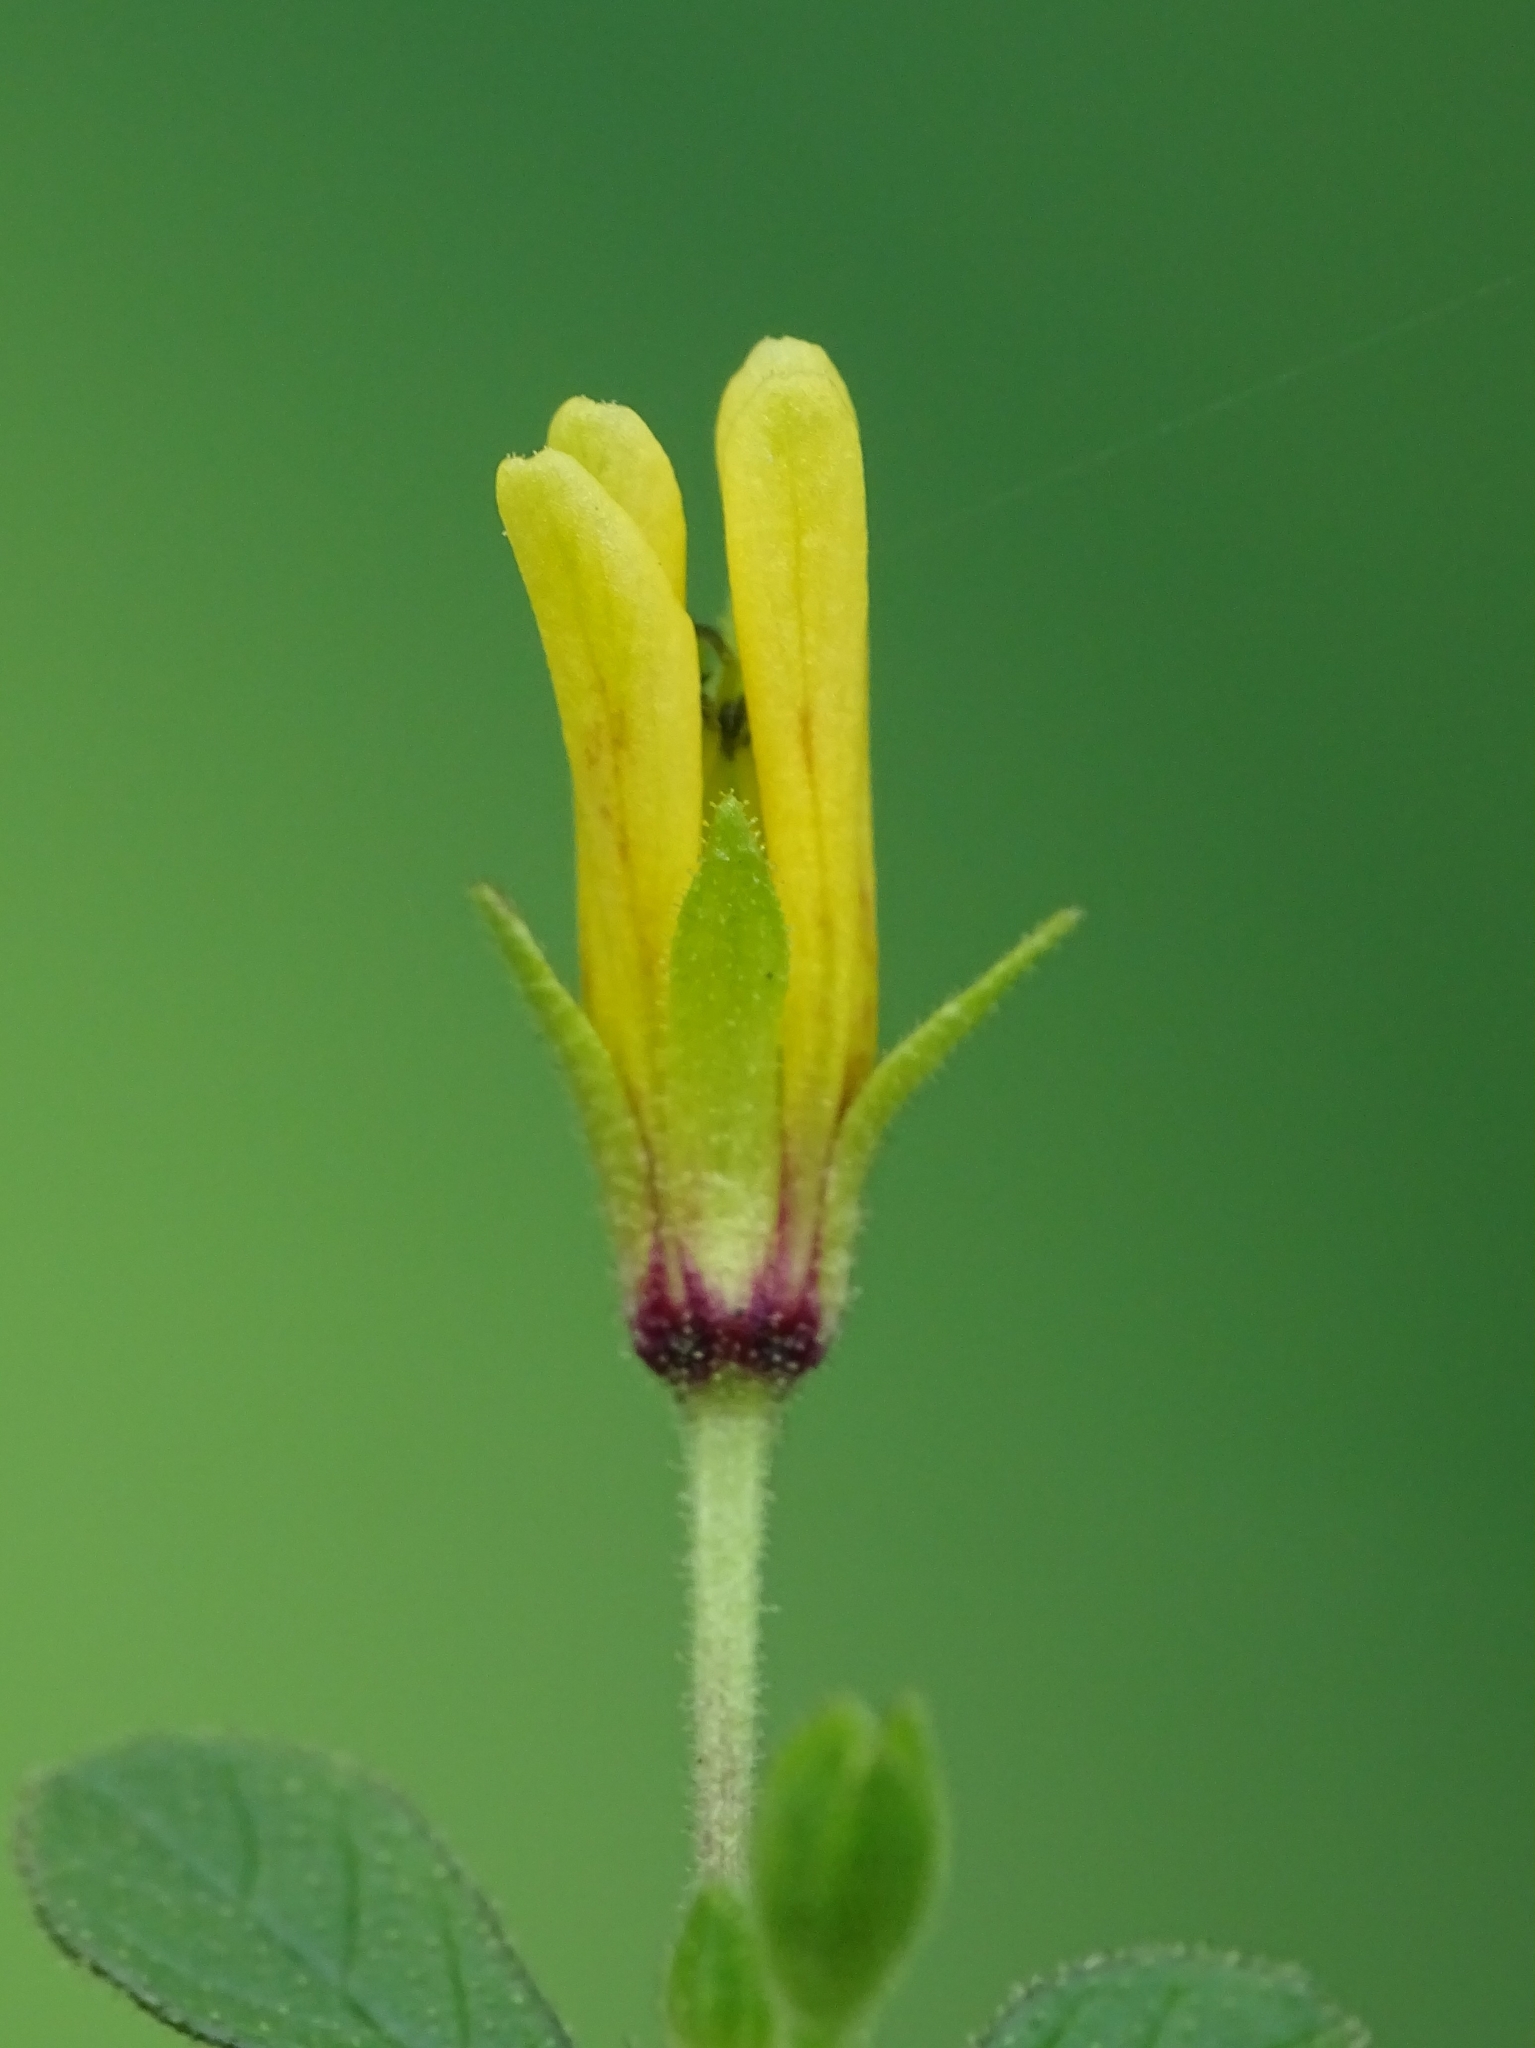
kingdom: Plantae
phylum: Tracheophyta
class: Magnoliopsida
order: Brassicales
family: Cleomaceae
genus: Arivela
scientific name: Arivela viscosa
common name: Asian spiderflower
